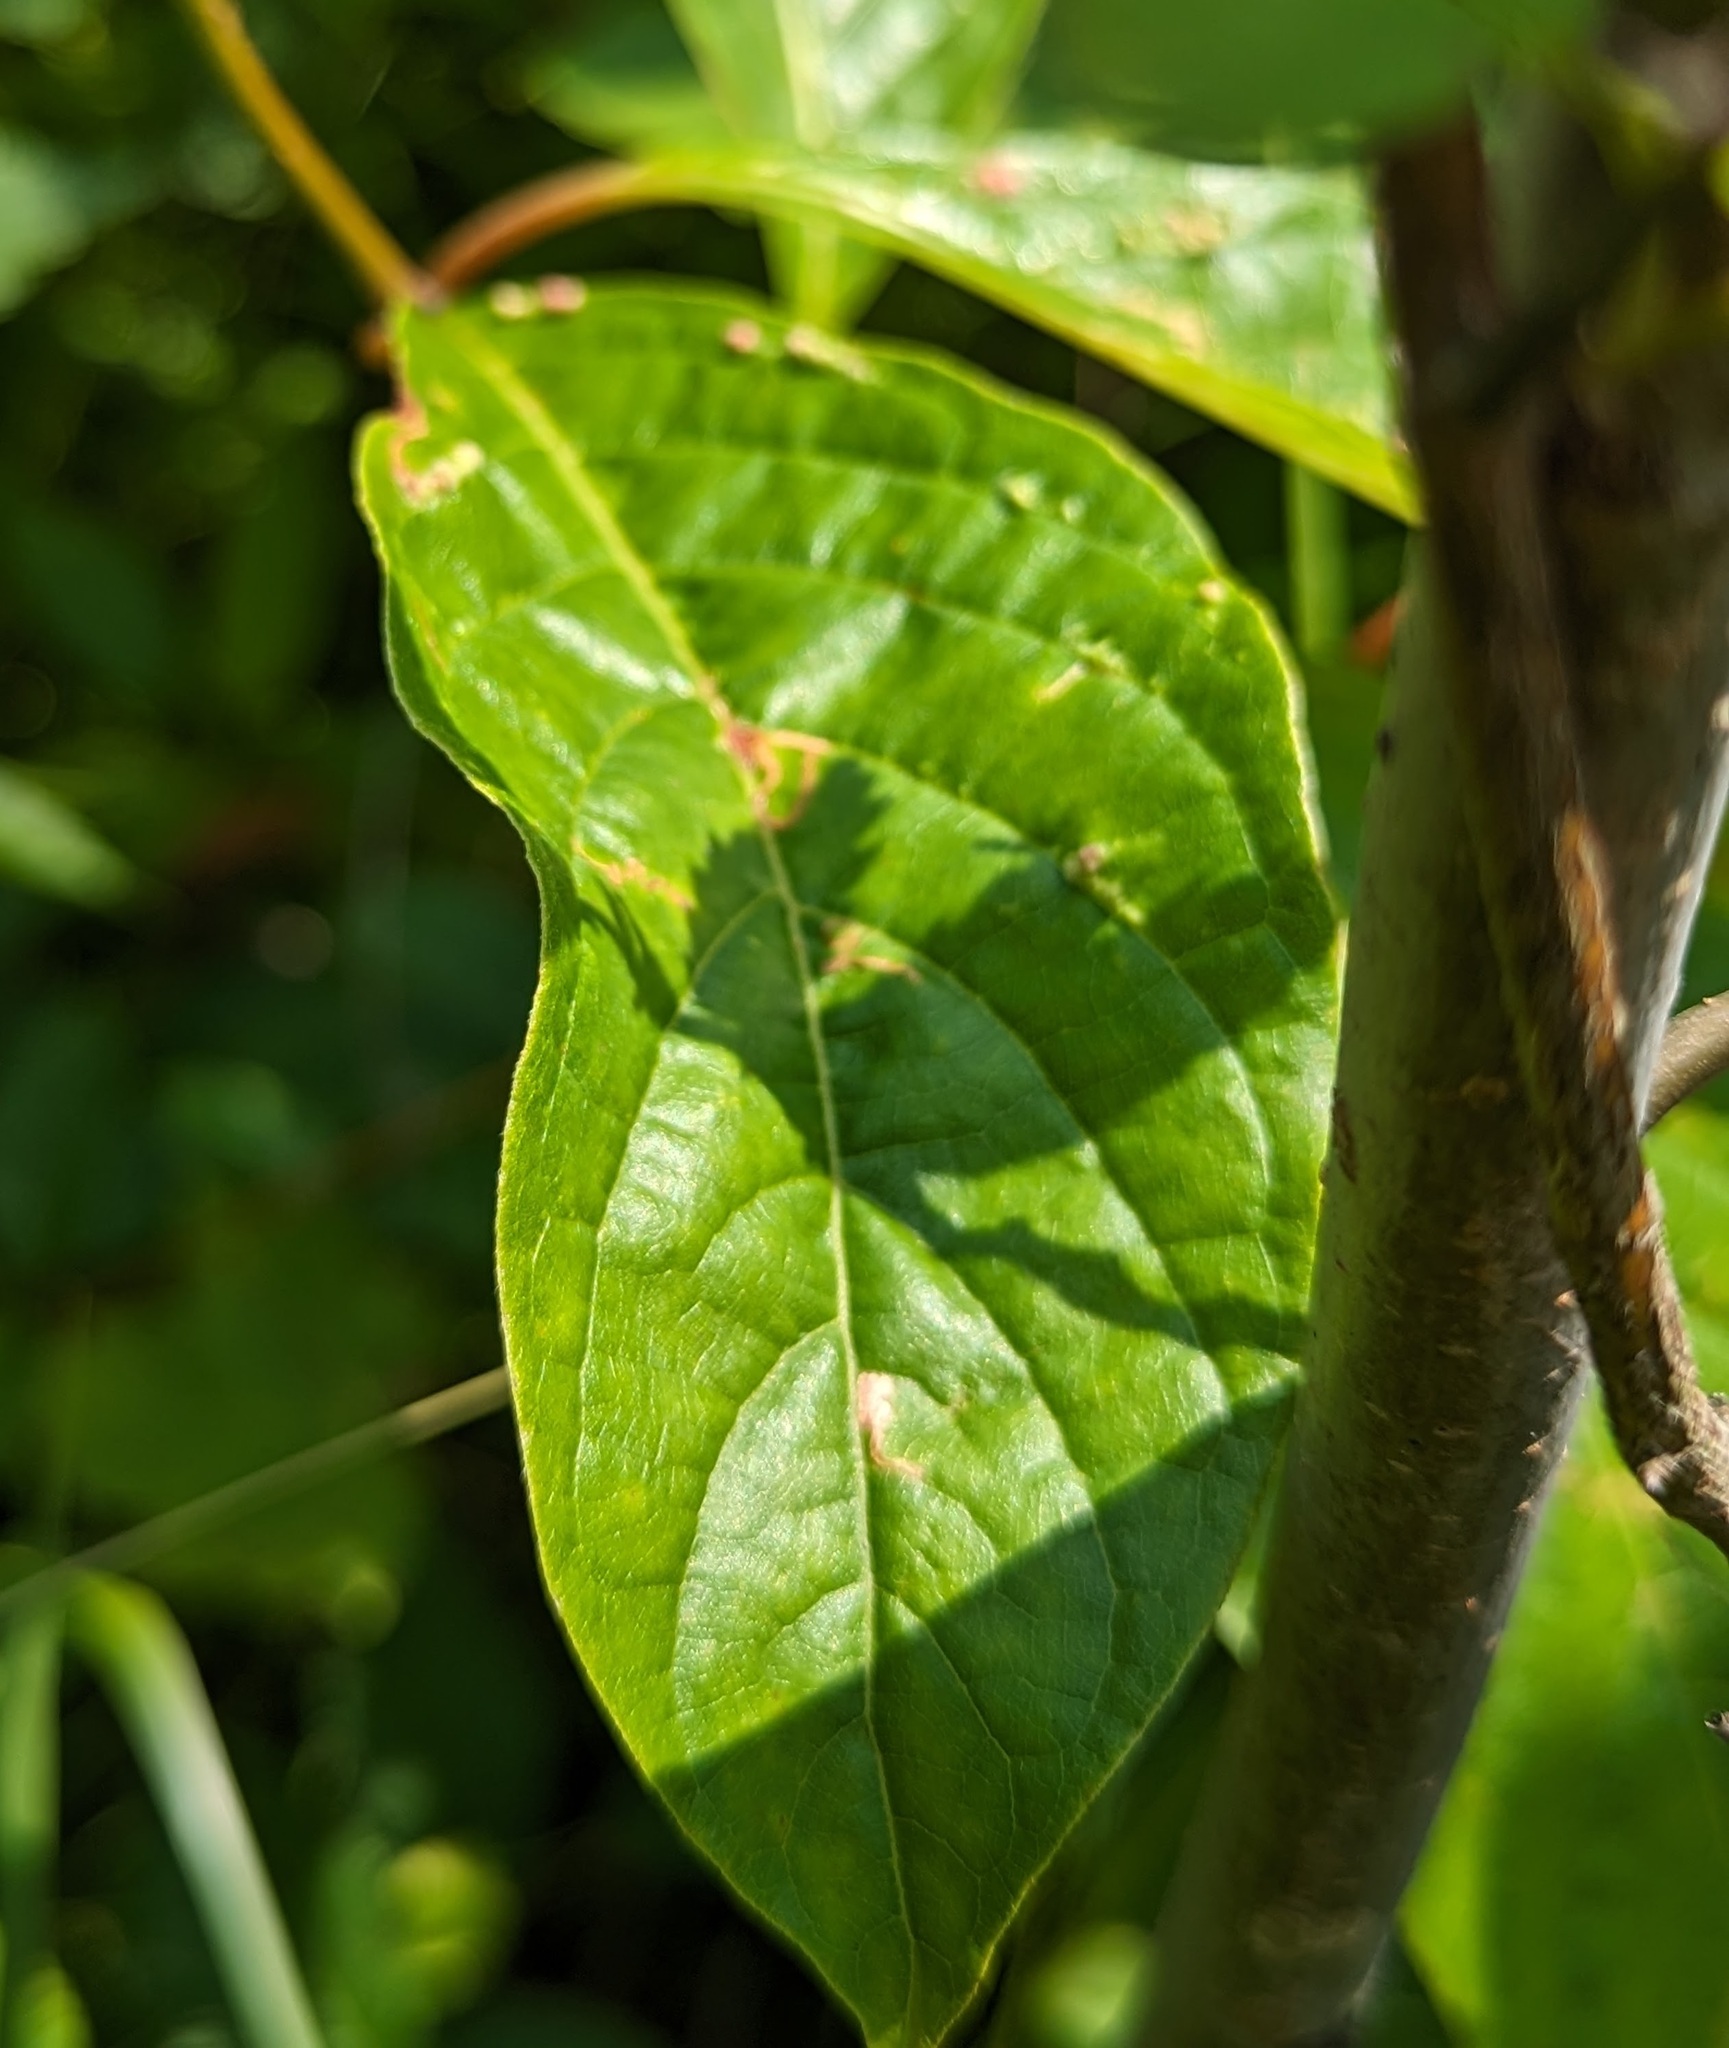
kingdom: Plantae
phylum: Tracheophyta
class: Magnoliopsida
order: Gentianales
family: Rubiaceae
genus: Cephalanthus
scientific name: Cephalanthus occidentalis
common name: Button-willow
